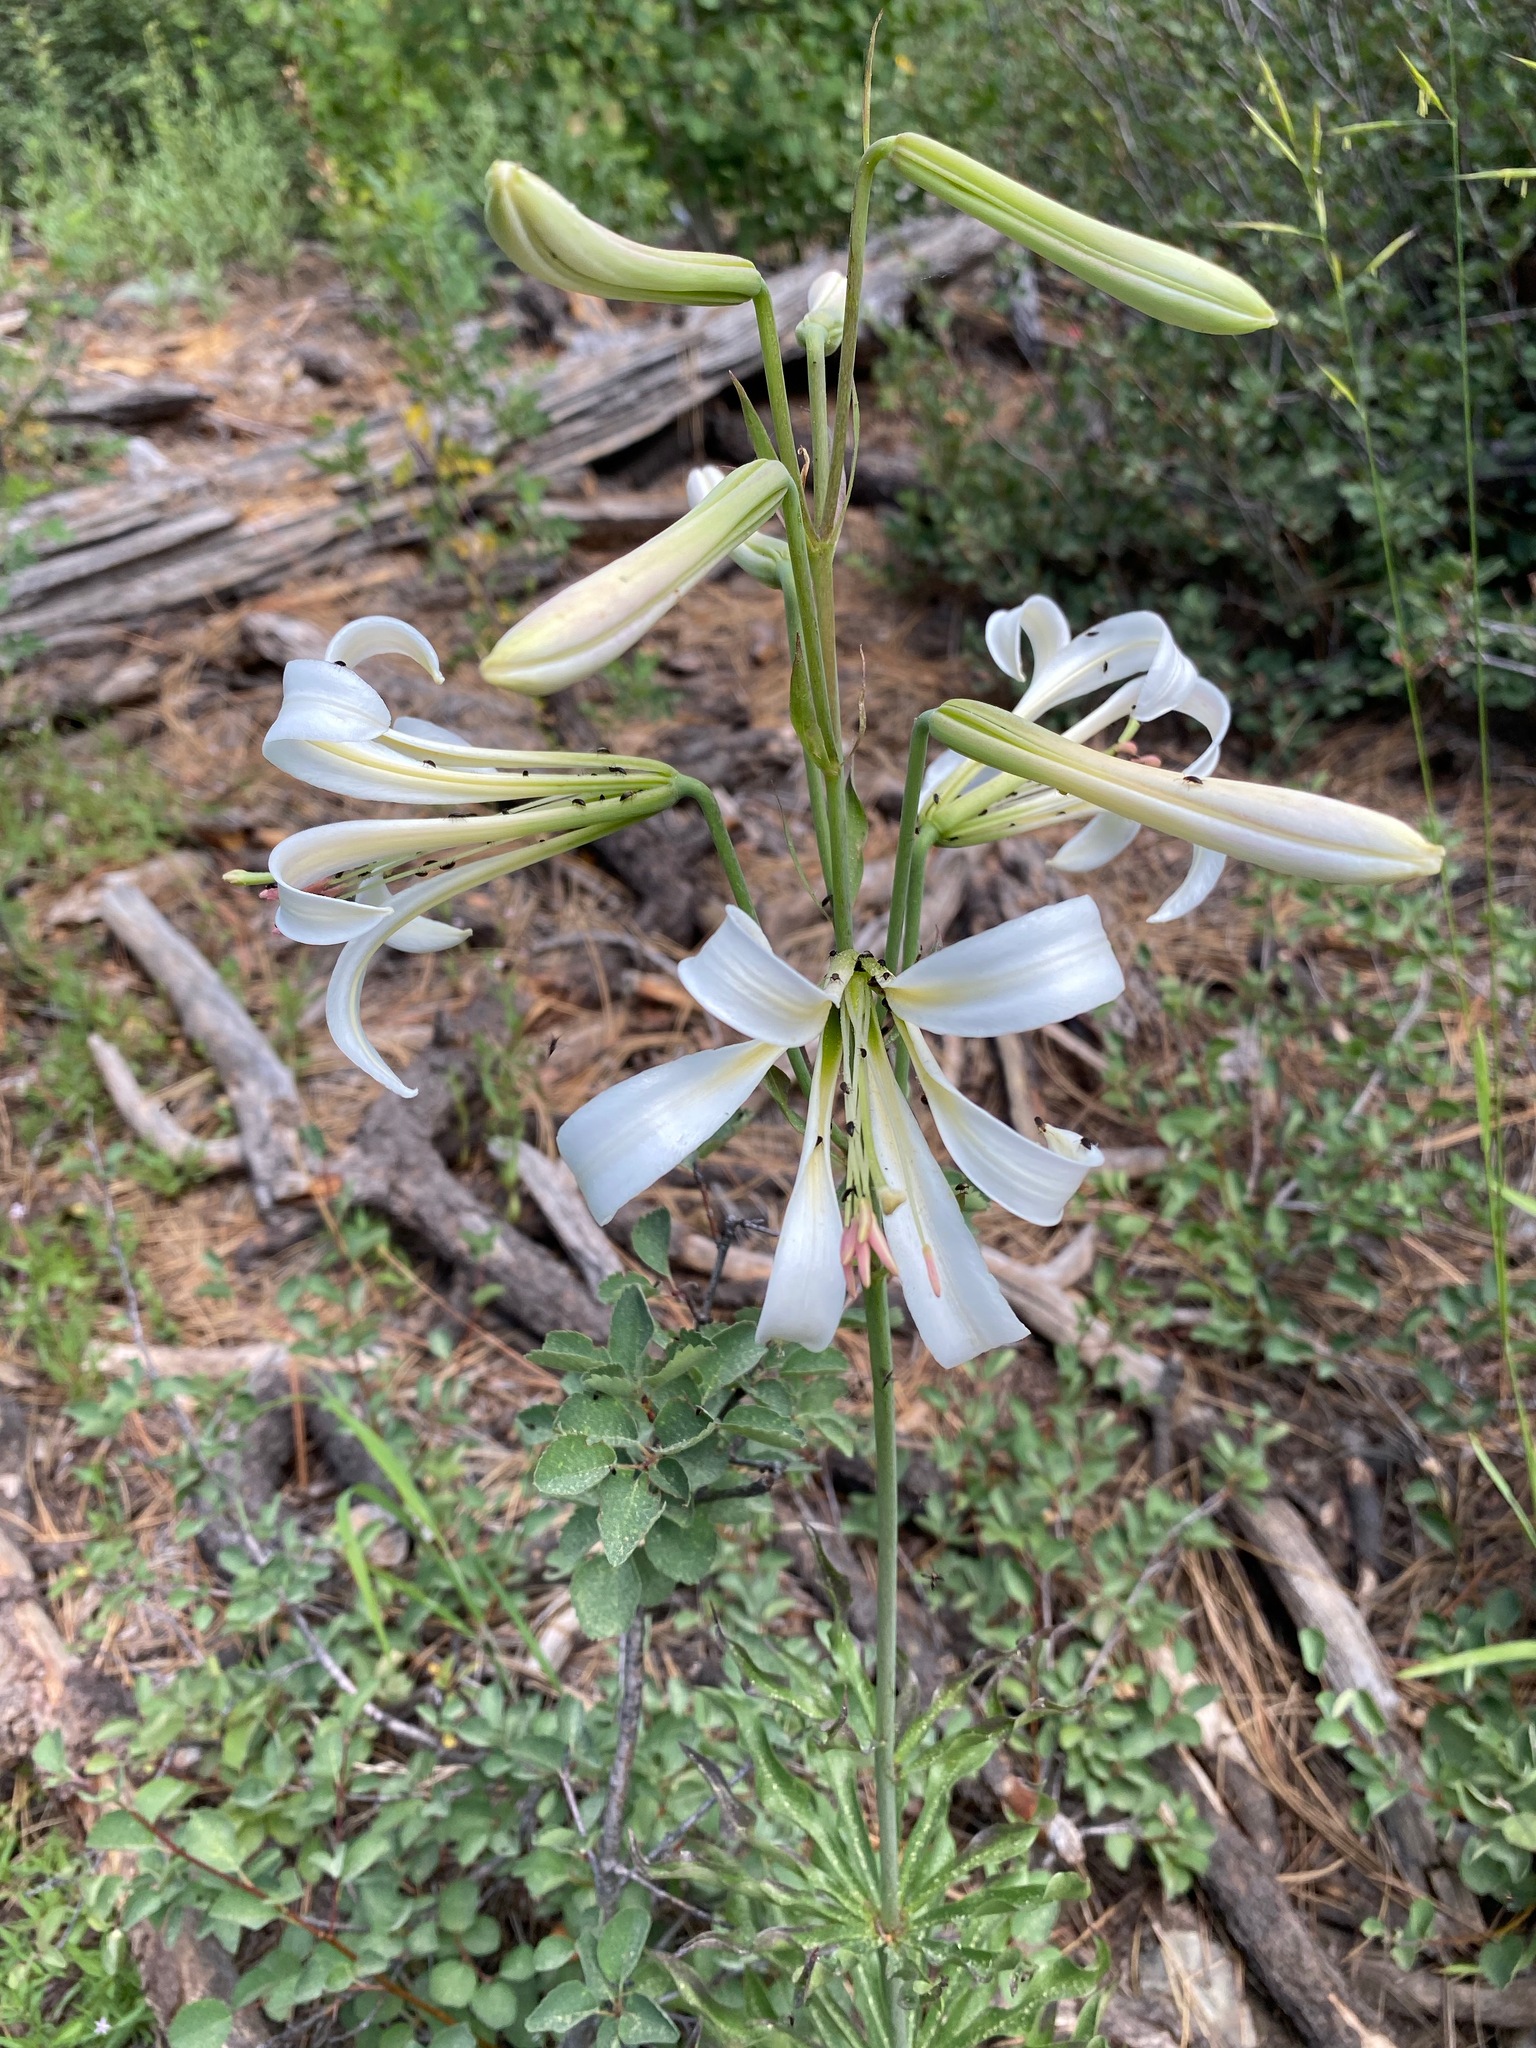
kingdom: Plantae
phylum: Tracheophyta
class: Liliopsida
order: Liliales
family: Liliaceae
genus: Lilium
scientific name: Lilium washingtonianum
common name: Washington lily
